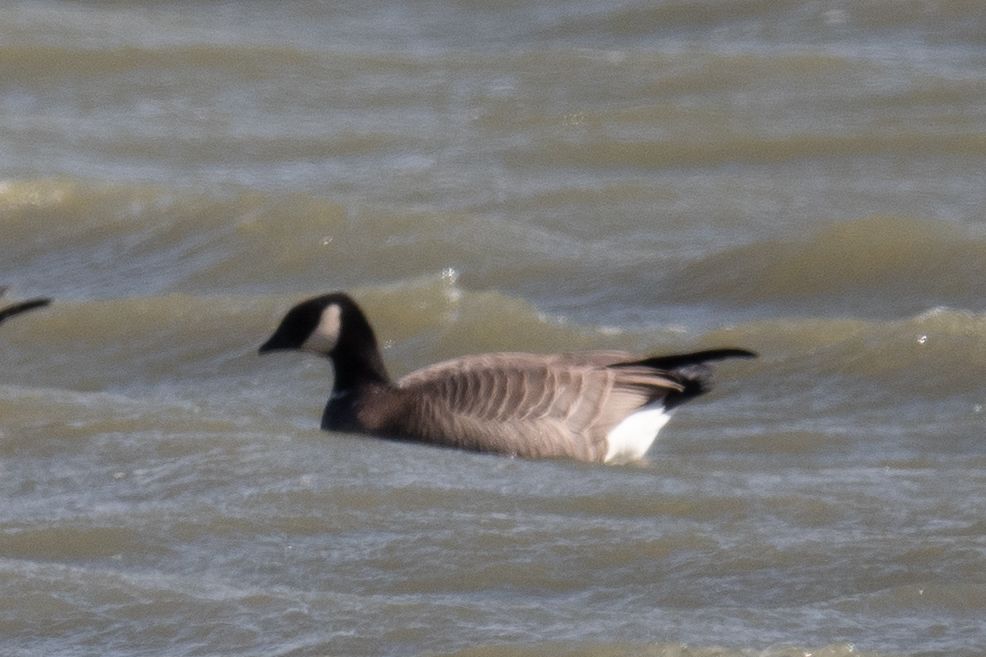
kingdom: Animalia
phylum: Chordata
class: Aves
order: Anseriformes
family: Anatidae
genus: Branta
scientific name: Branta hutchinsii
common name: Cackling goose
